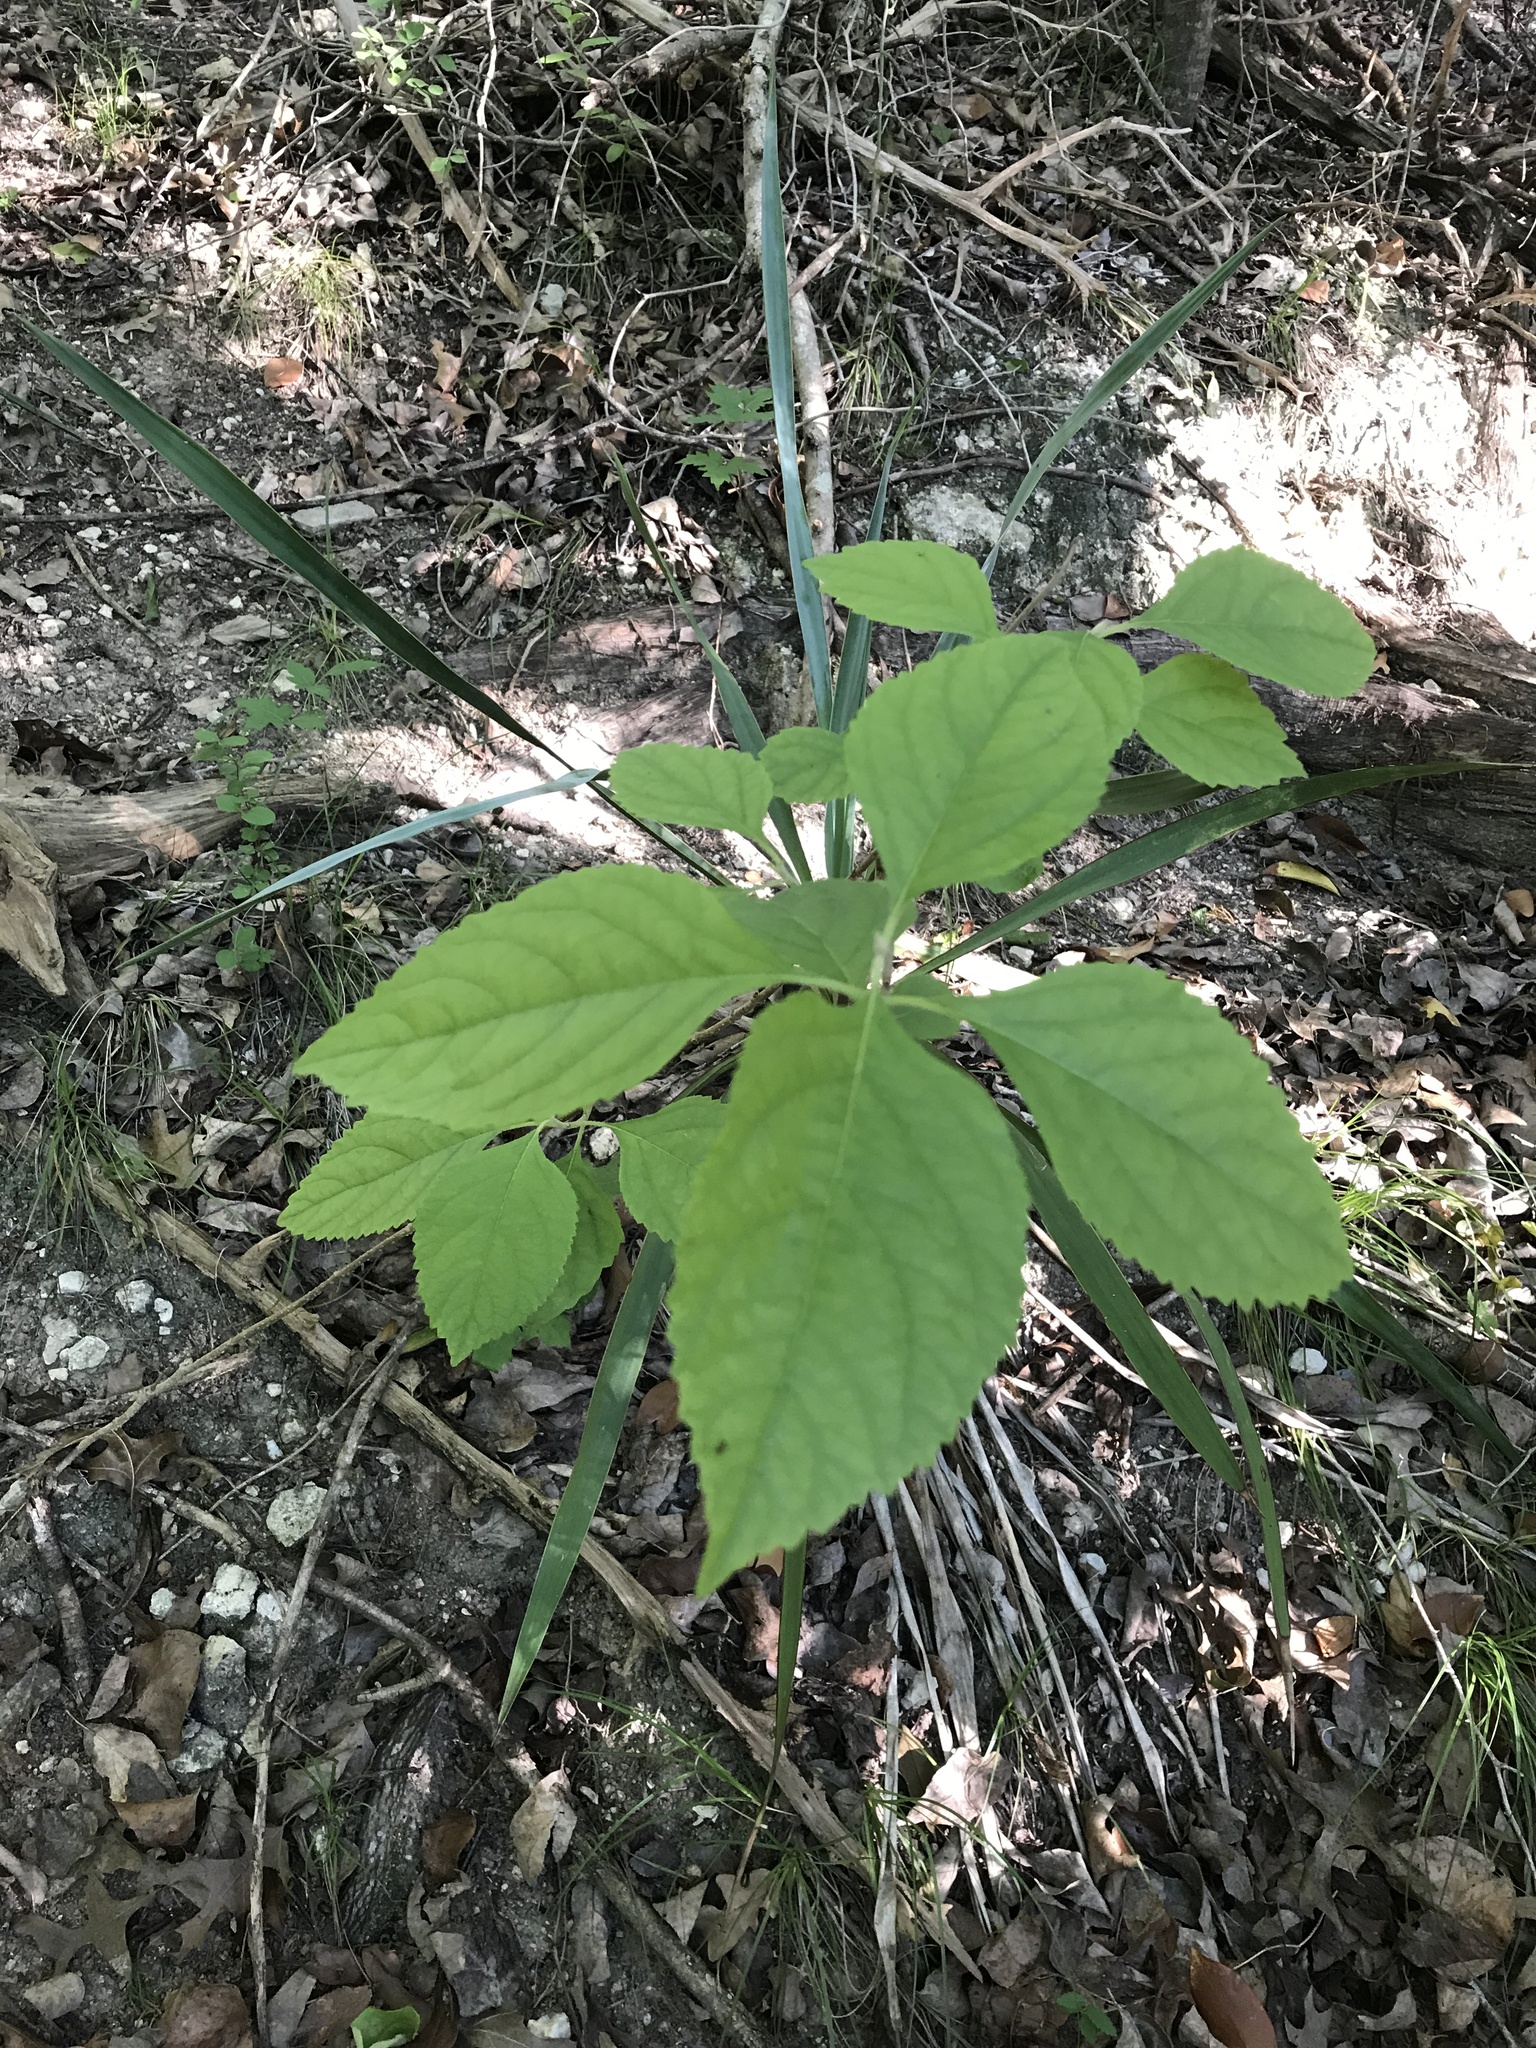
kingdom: Plantae
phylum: Tracheophyta
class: Magnoliopsida
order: Lamiales
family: Lamiaceae
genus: Callicarpa
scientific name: Callicarpa americana
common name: American beautyberry
